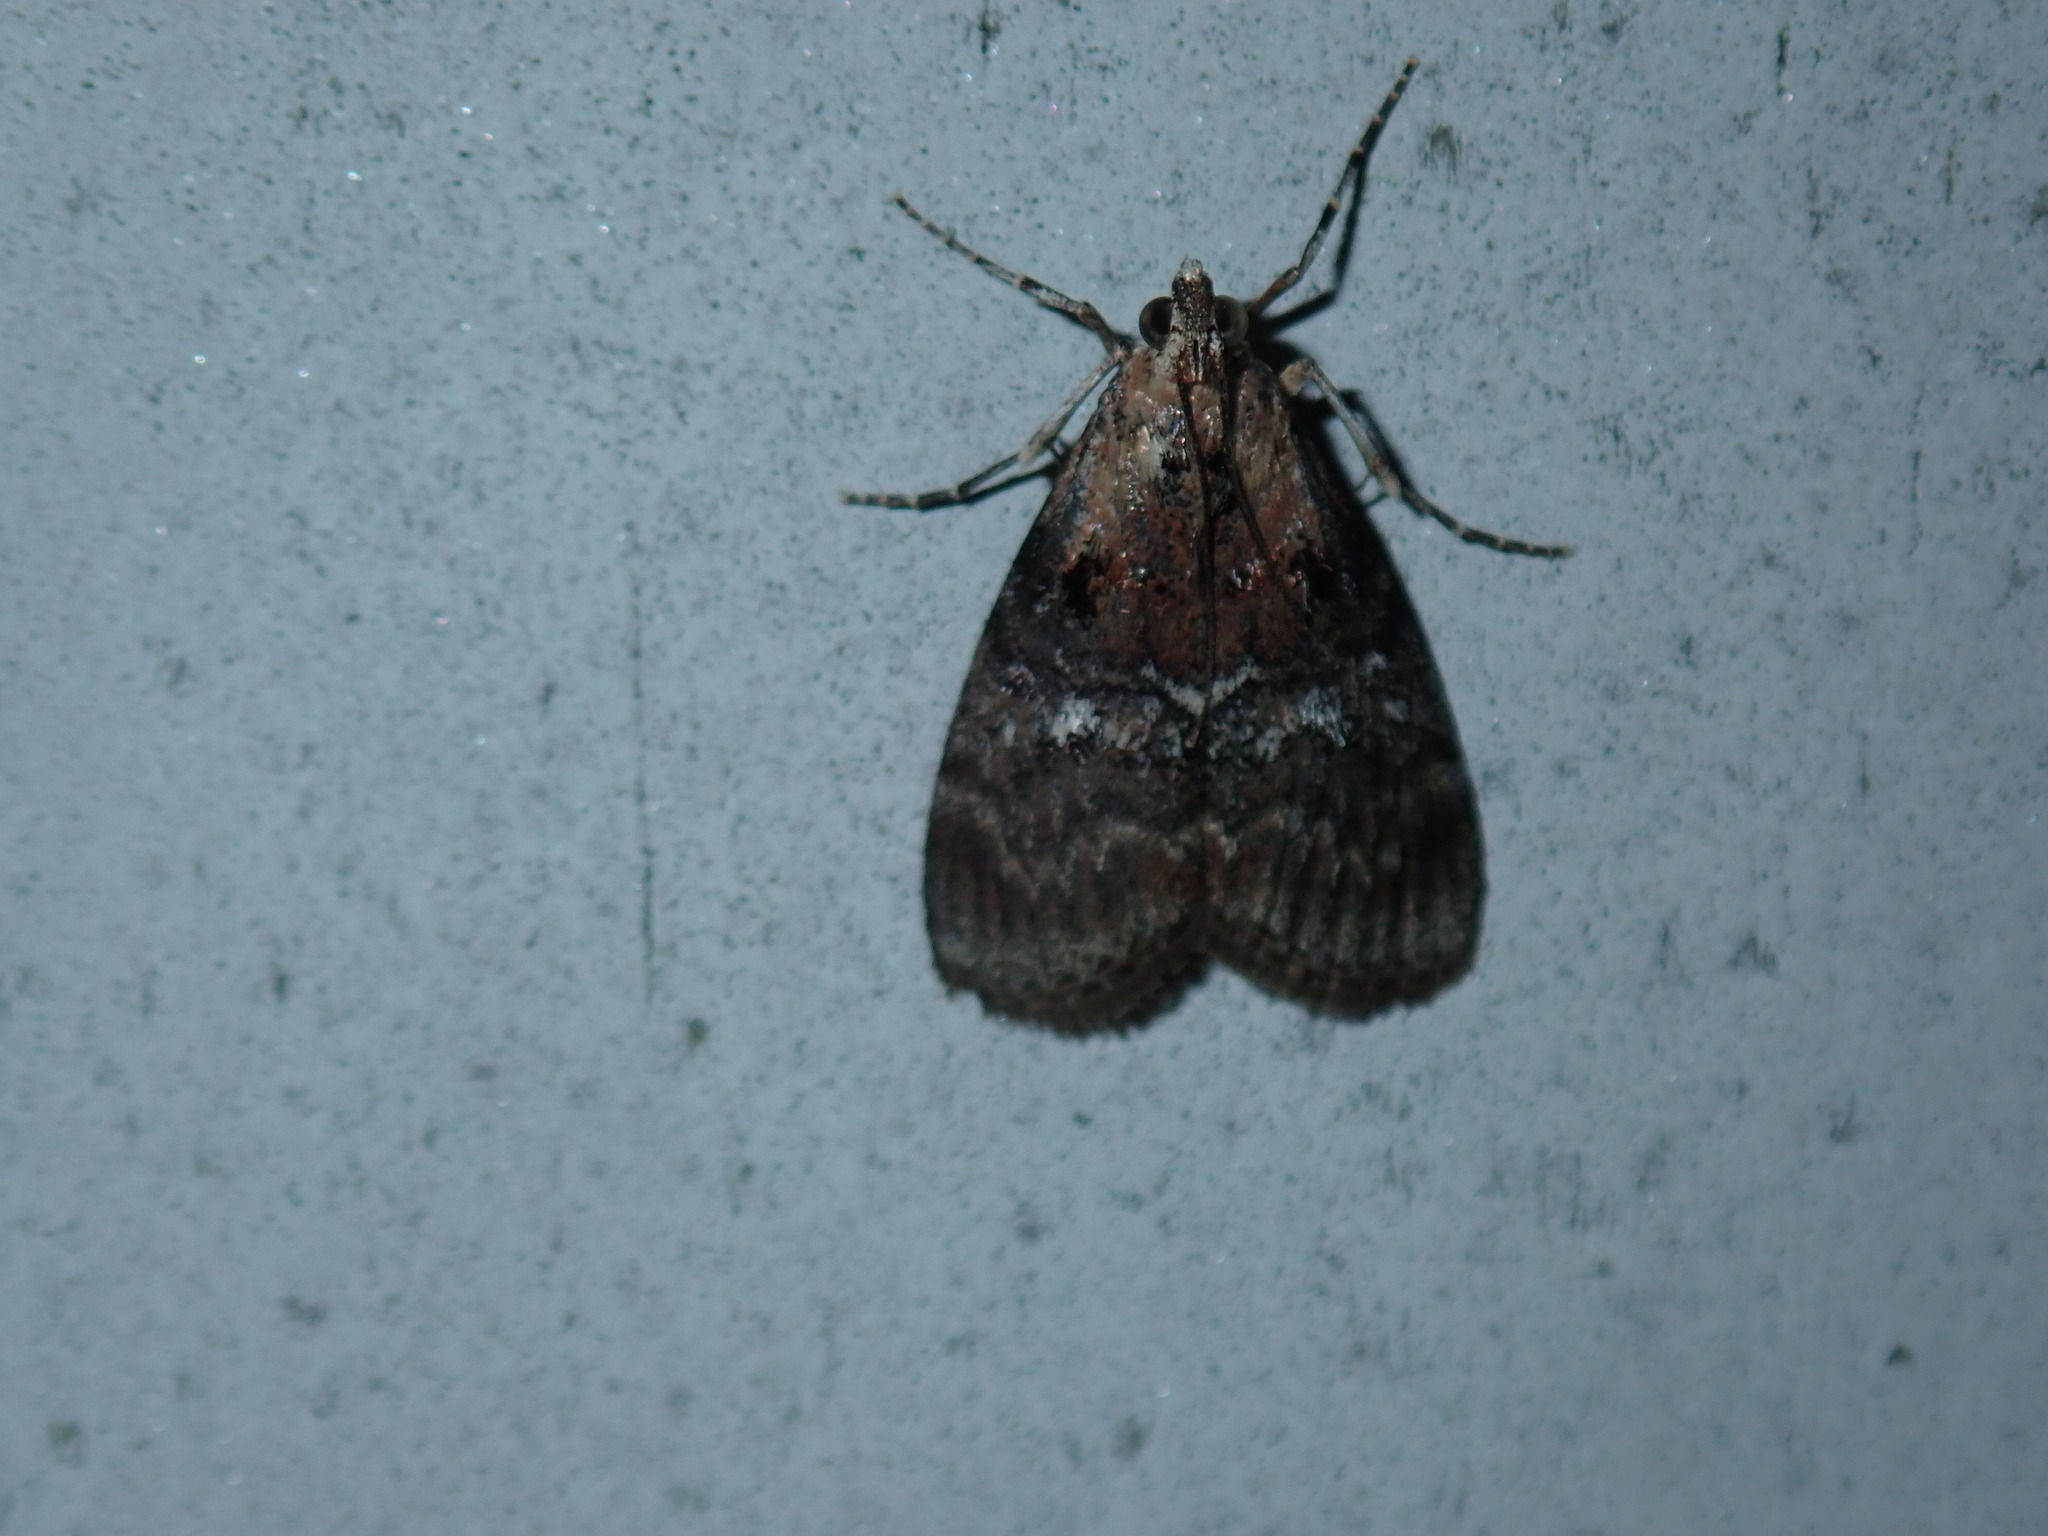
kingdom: Animalia
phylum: Arthropoda
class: Insecta
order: Lepidoptera
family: Pyralidae
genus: Pococera
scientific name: Pococera expandens
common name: Striped oak webworm moth
